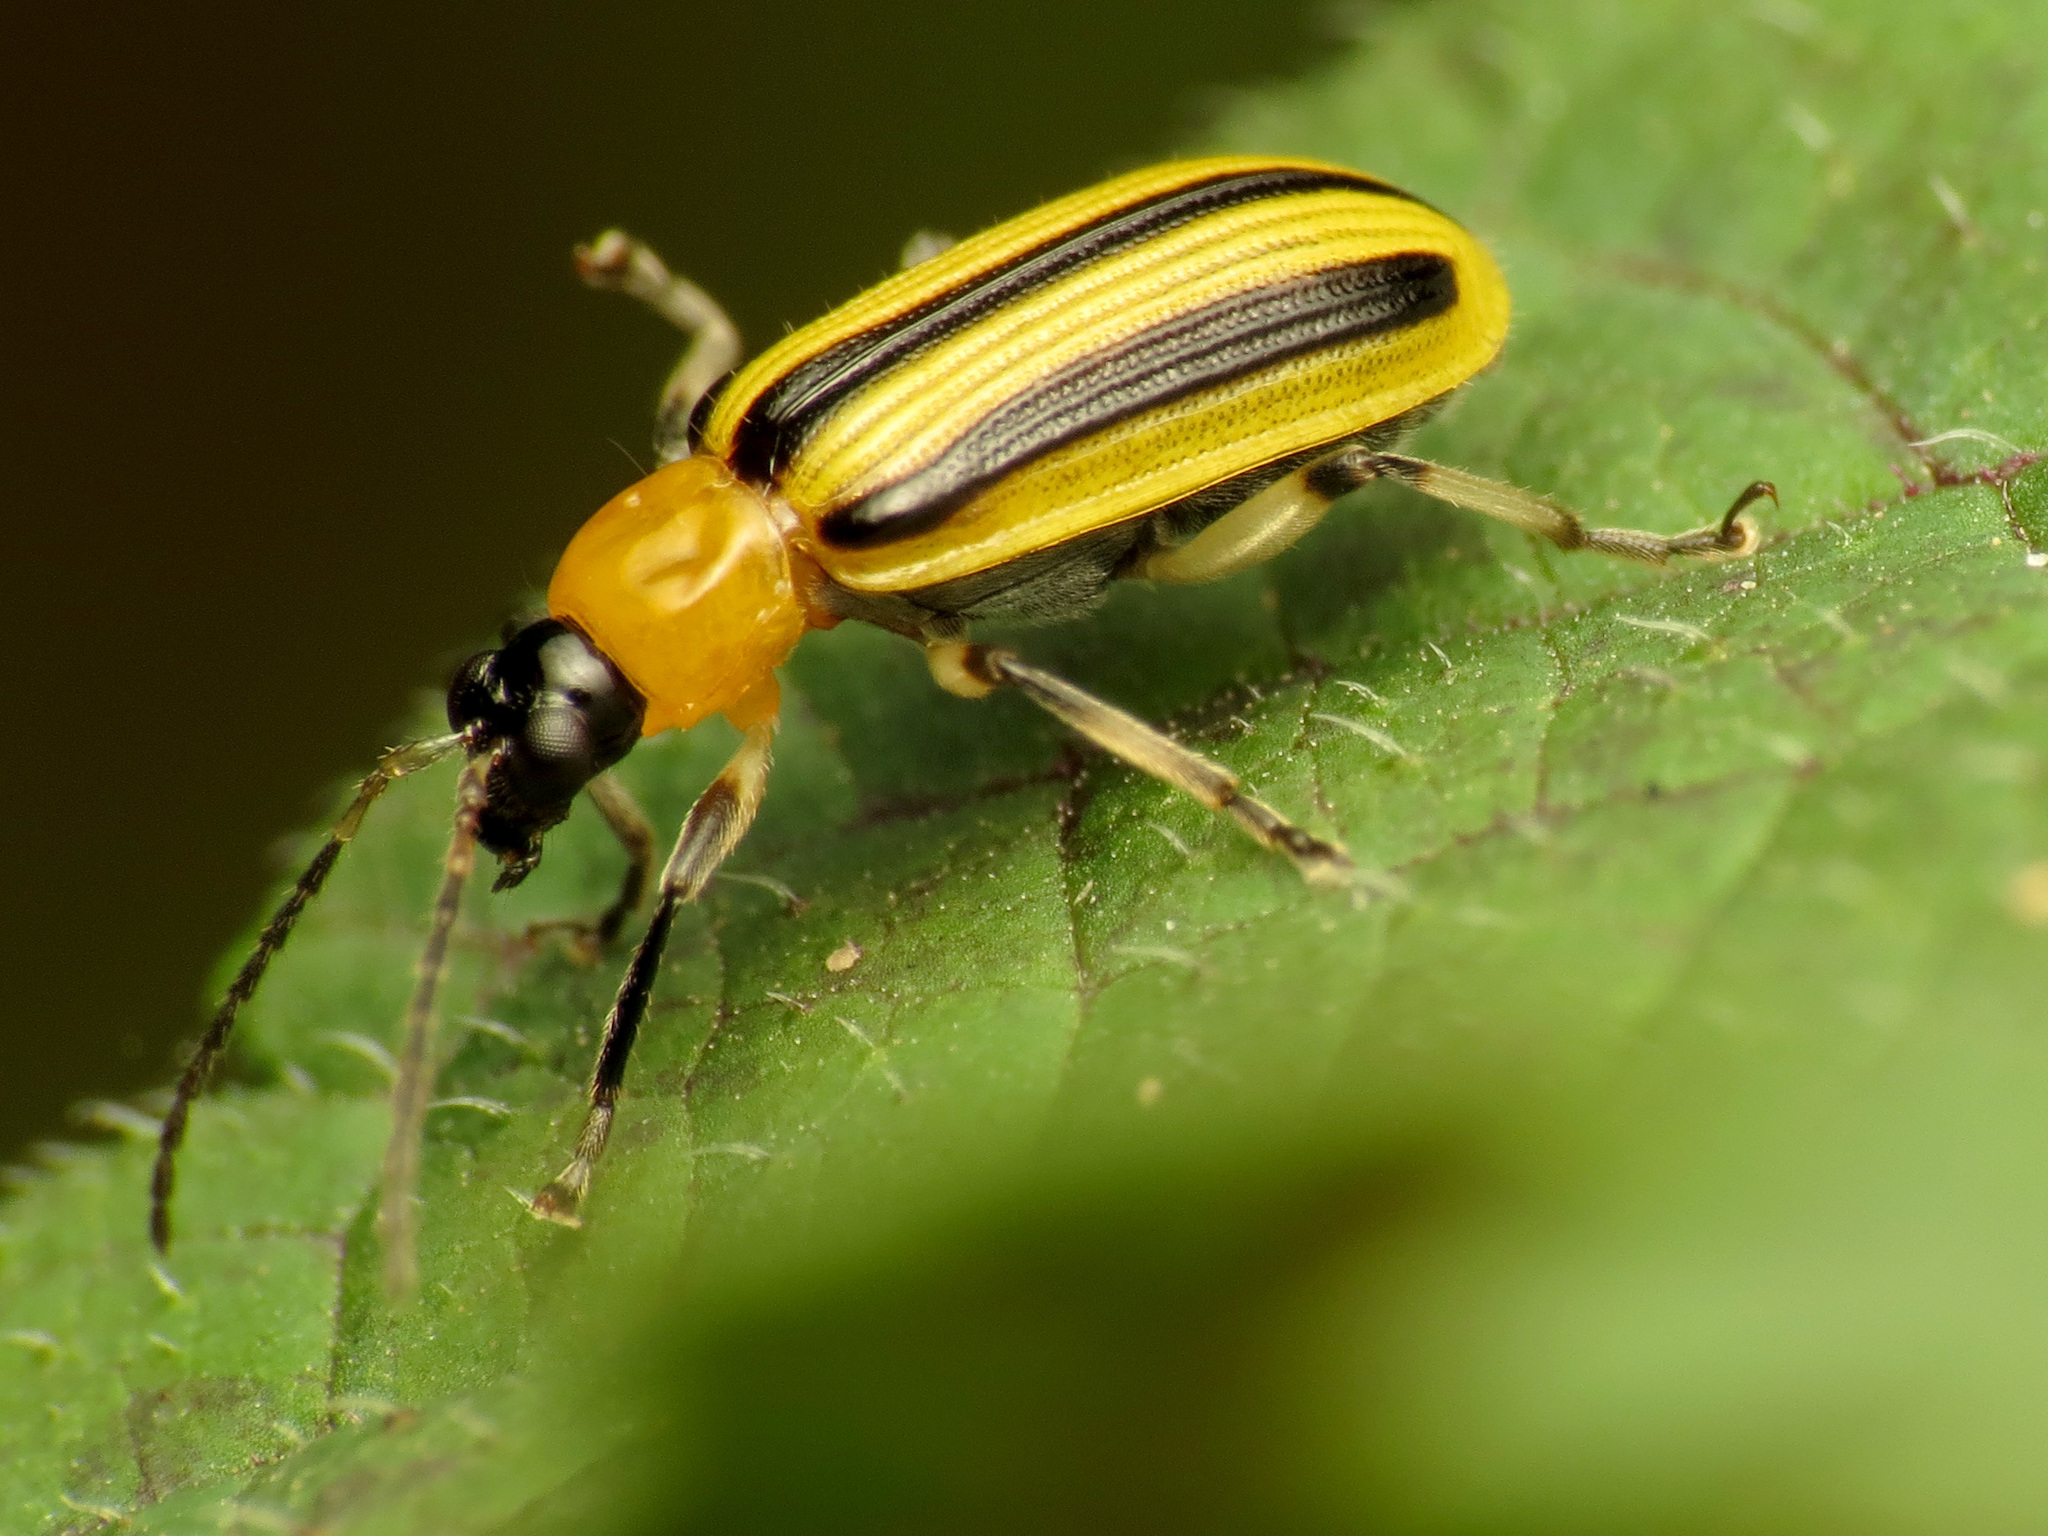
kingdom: Animalia
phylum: Arthropoda
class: Insecta
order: Coleoptera
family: Chrysomelidae
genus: Acalymma
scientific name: Acalymma vittatum
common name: Striped cucumber beetle
